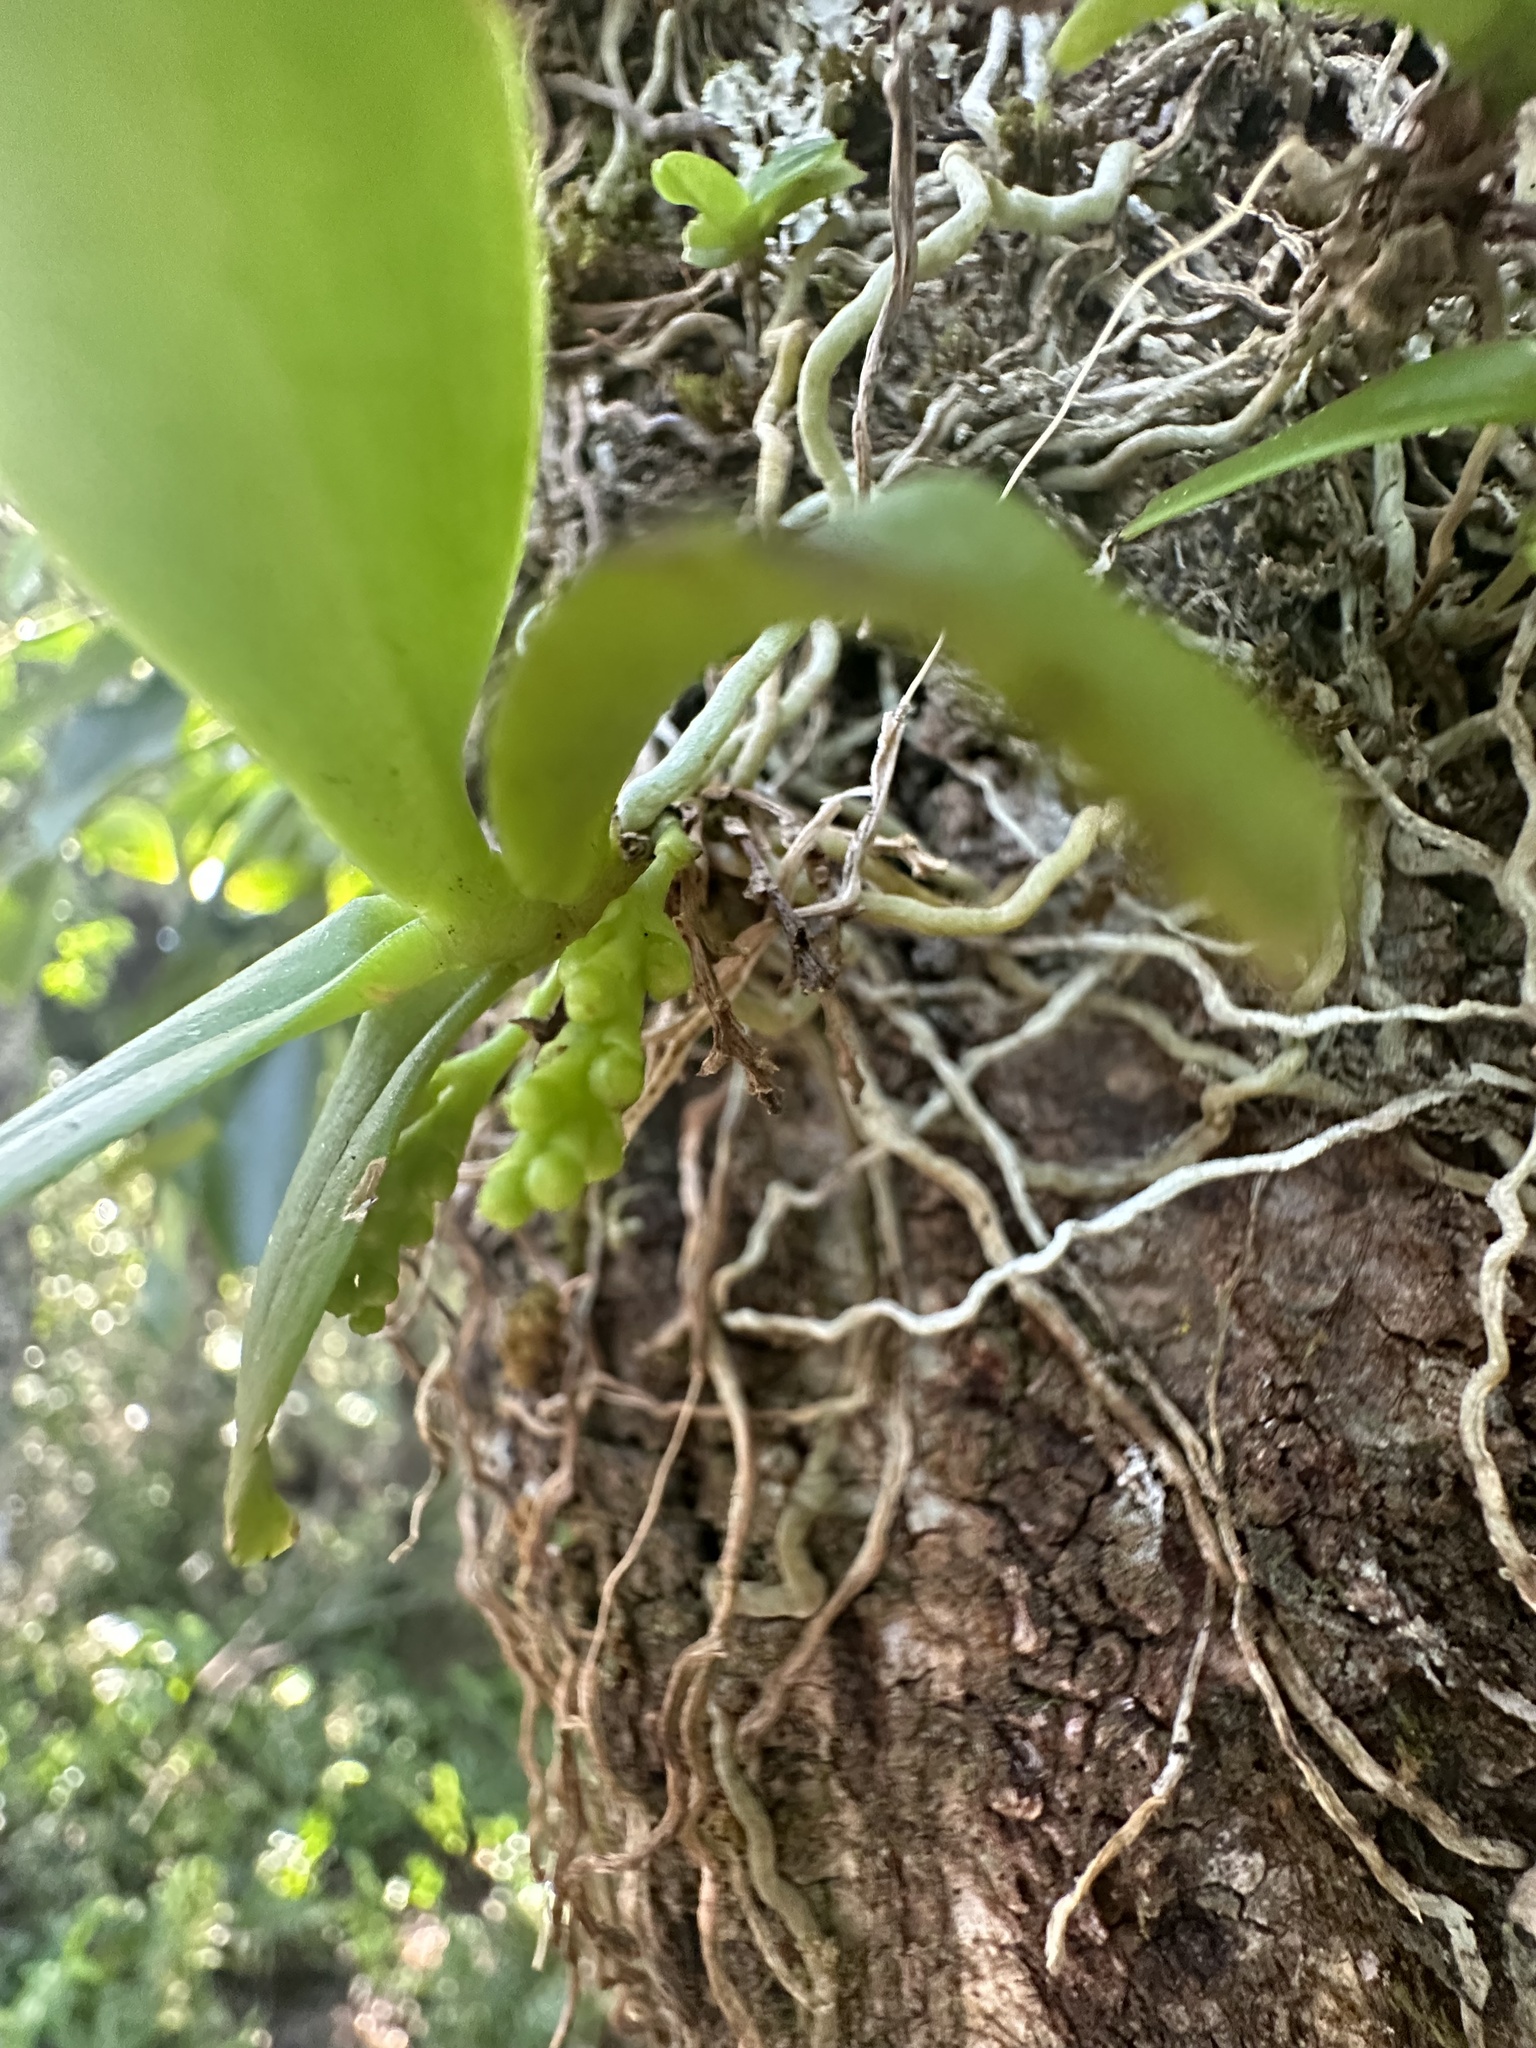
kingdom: Plantae
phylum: Tracheophyta
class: Liliopsida
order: Asparagales
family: Orchidaceae
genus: Drymoanthus
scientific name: Drymoanthus adversus
